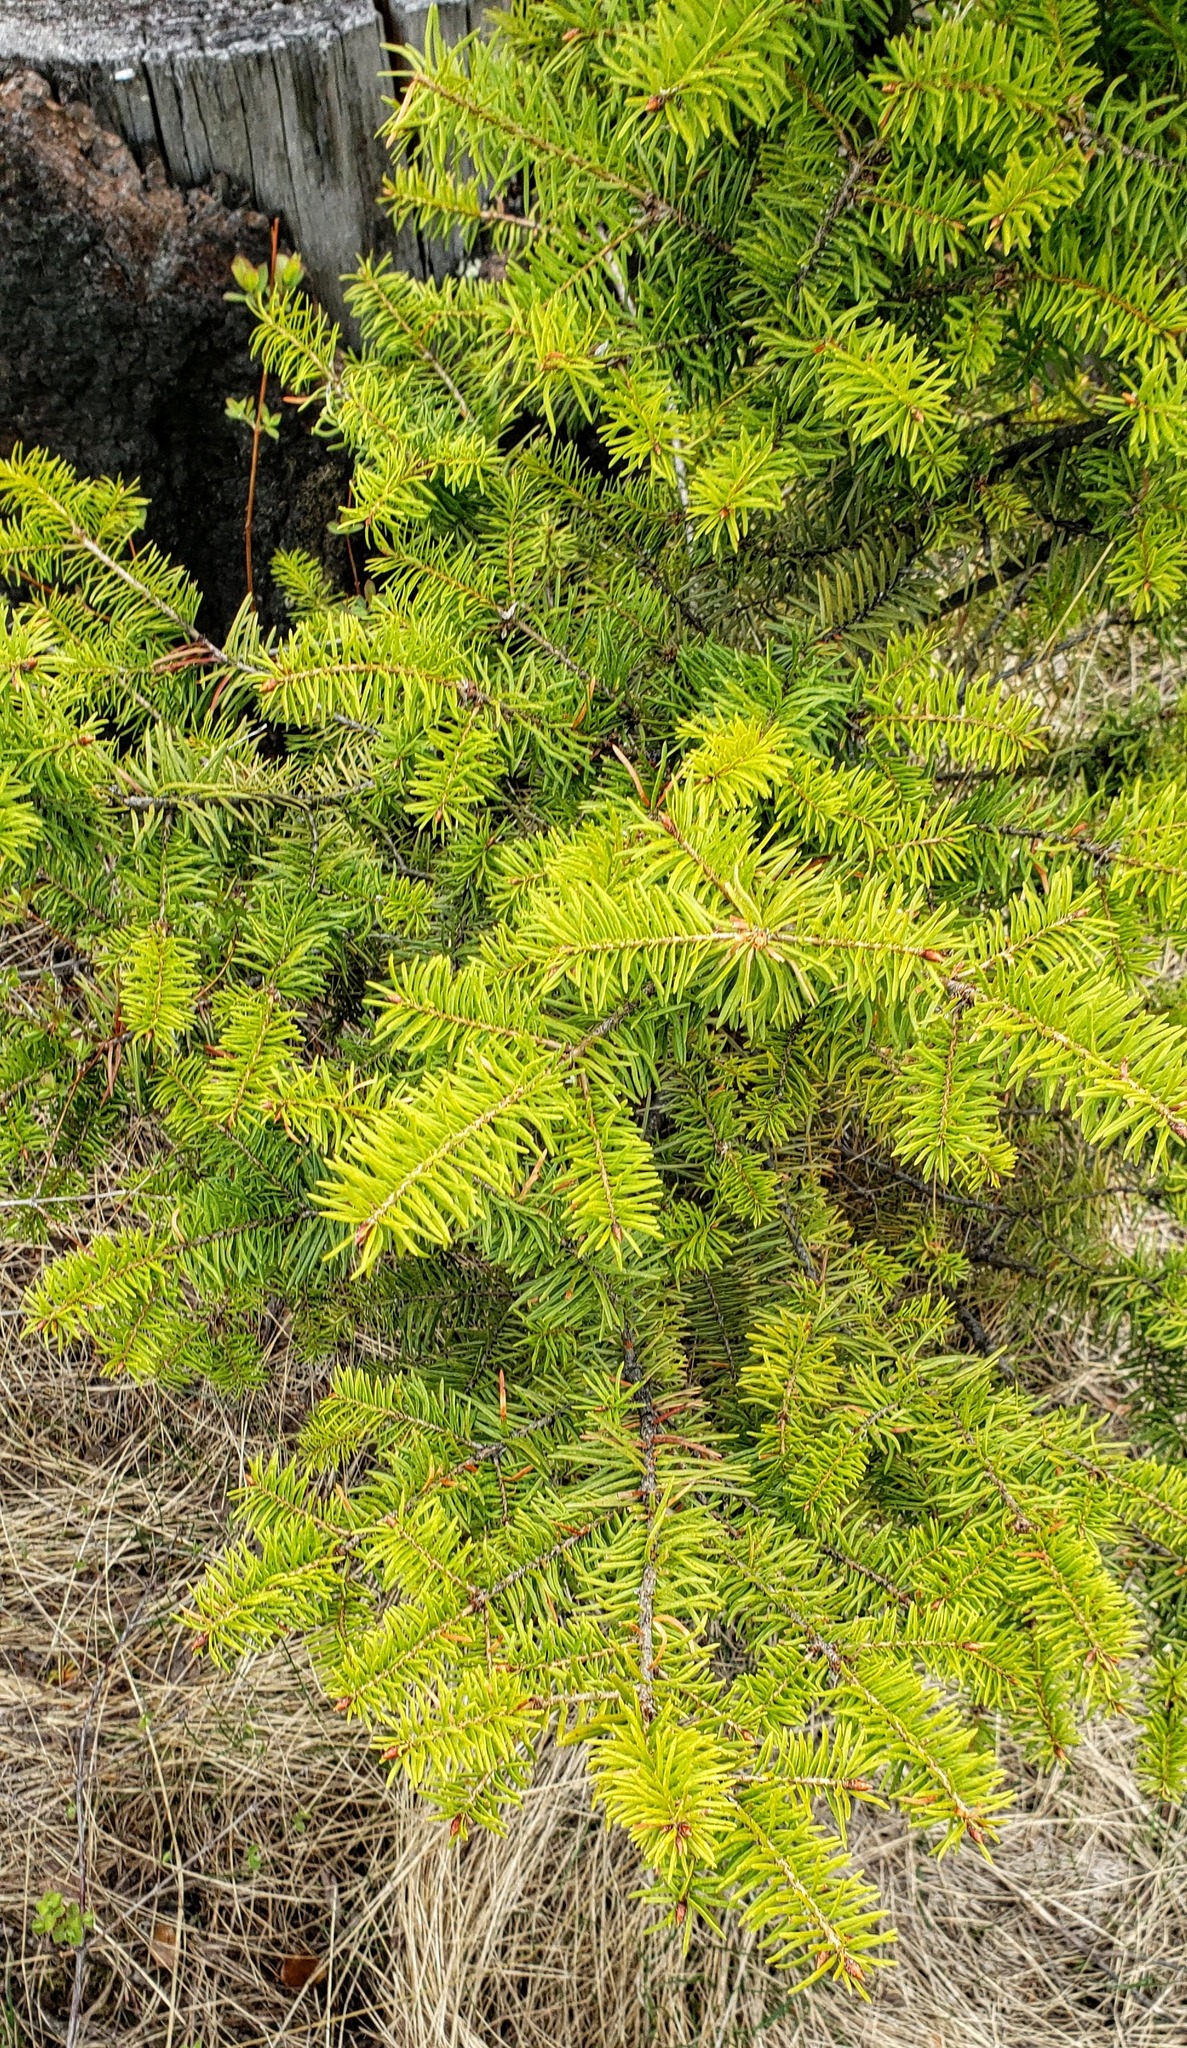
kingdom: Plantae
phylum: Tracheophyta
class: Pinopsida
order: Pinales
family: Pinaceae
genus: Pseudotsuga
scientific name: Pseudotsuga menziesii
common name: Douglas fir
